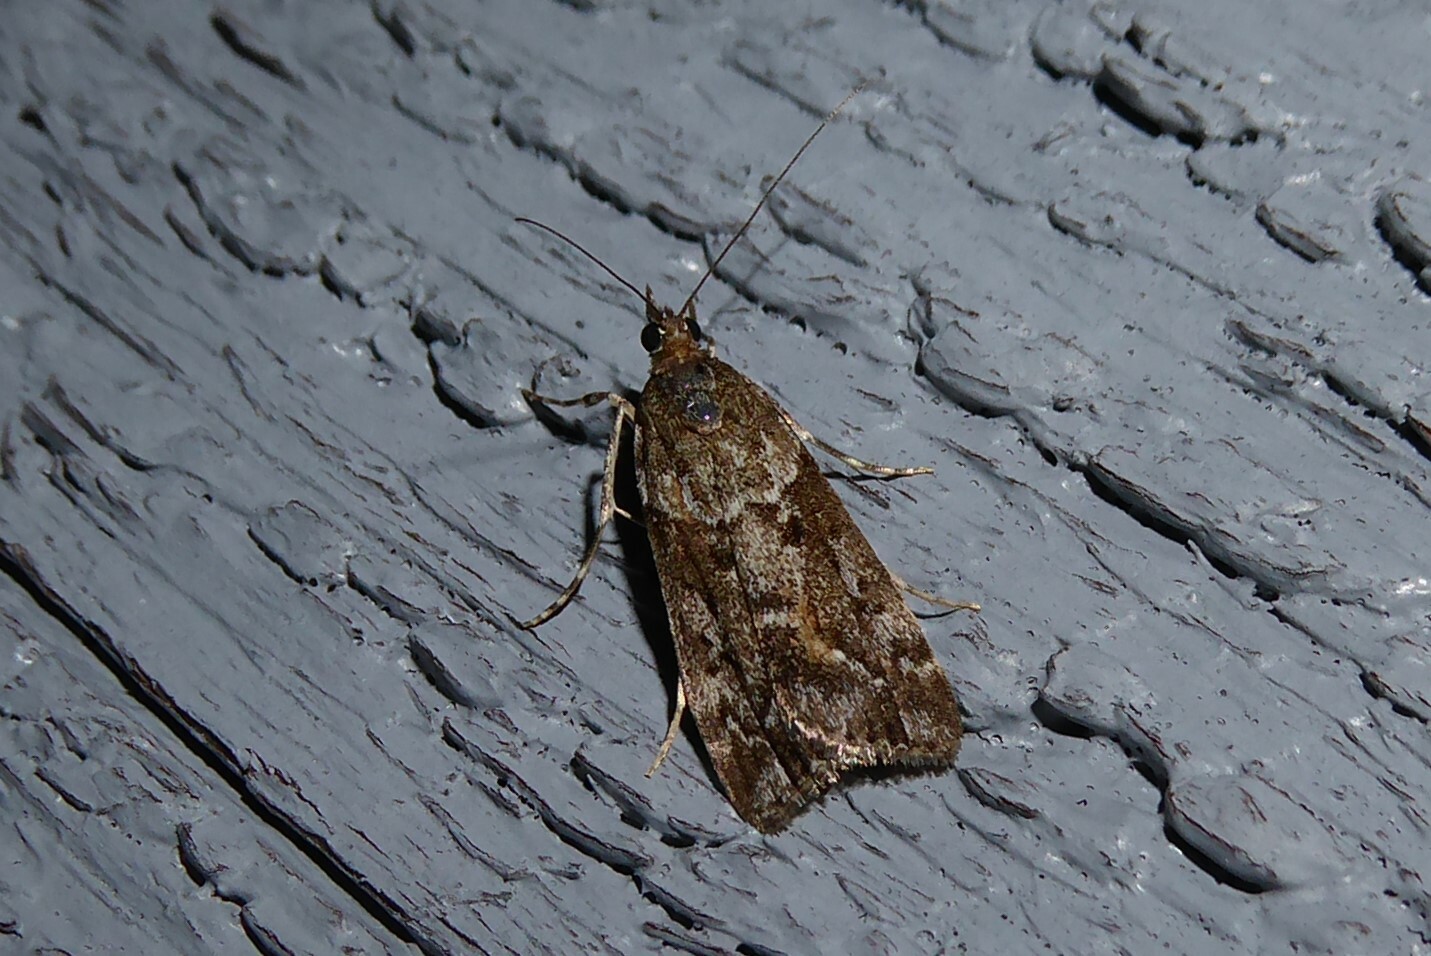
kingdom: Animalia
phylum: Arthropoda
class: Insecta
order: Lepidoptera
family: Crambidae
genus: Eudonia
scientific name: Eudonia submarginalis
